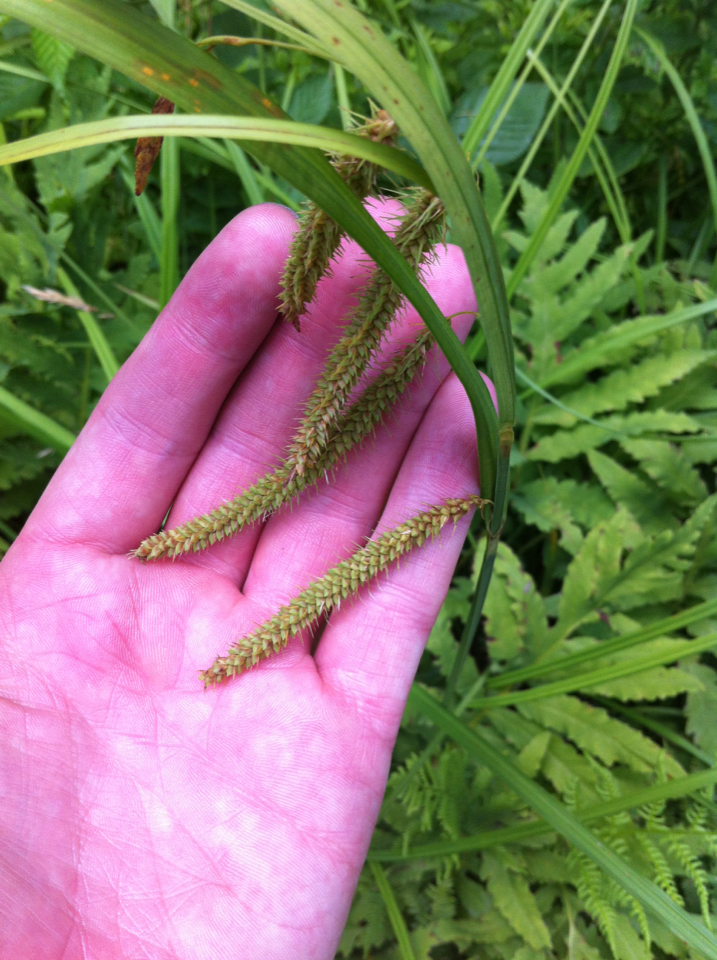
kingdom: Plantae
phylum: Tracheophyta
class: Liliopsida
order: Poales
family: Cyperaceae
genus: Carex
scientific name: Carex gynandra
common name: Nodding sedge
